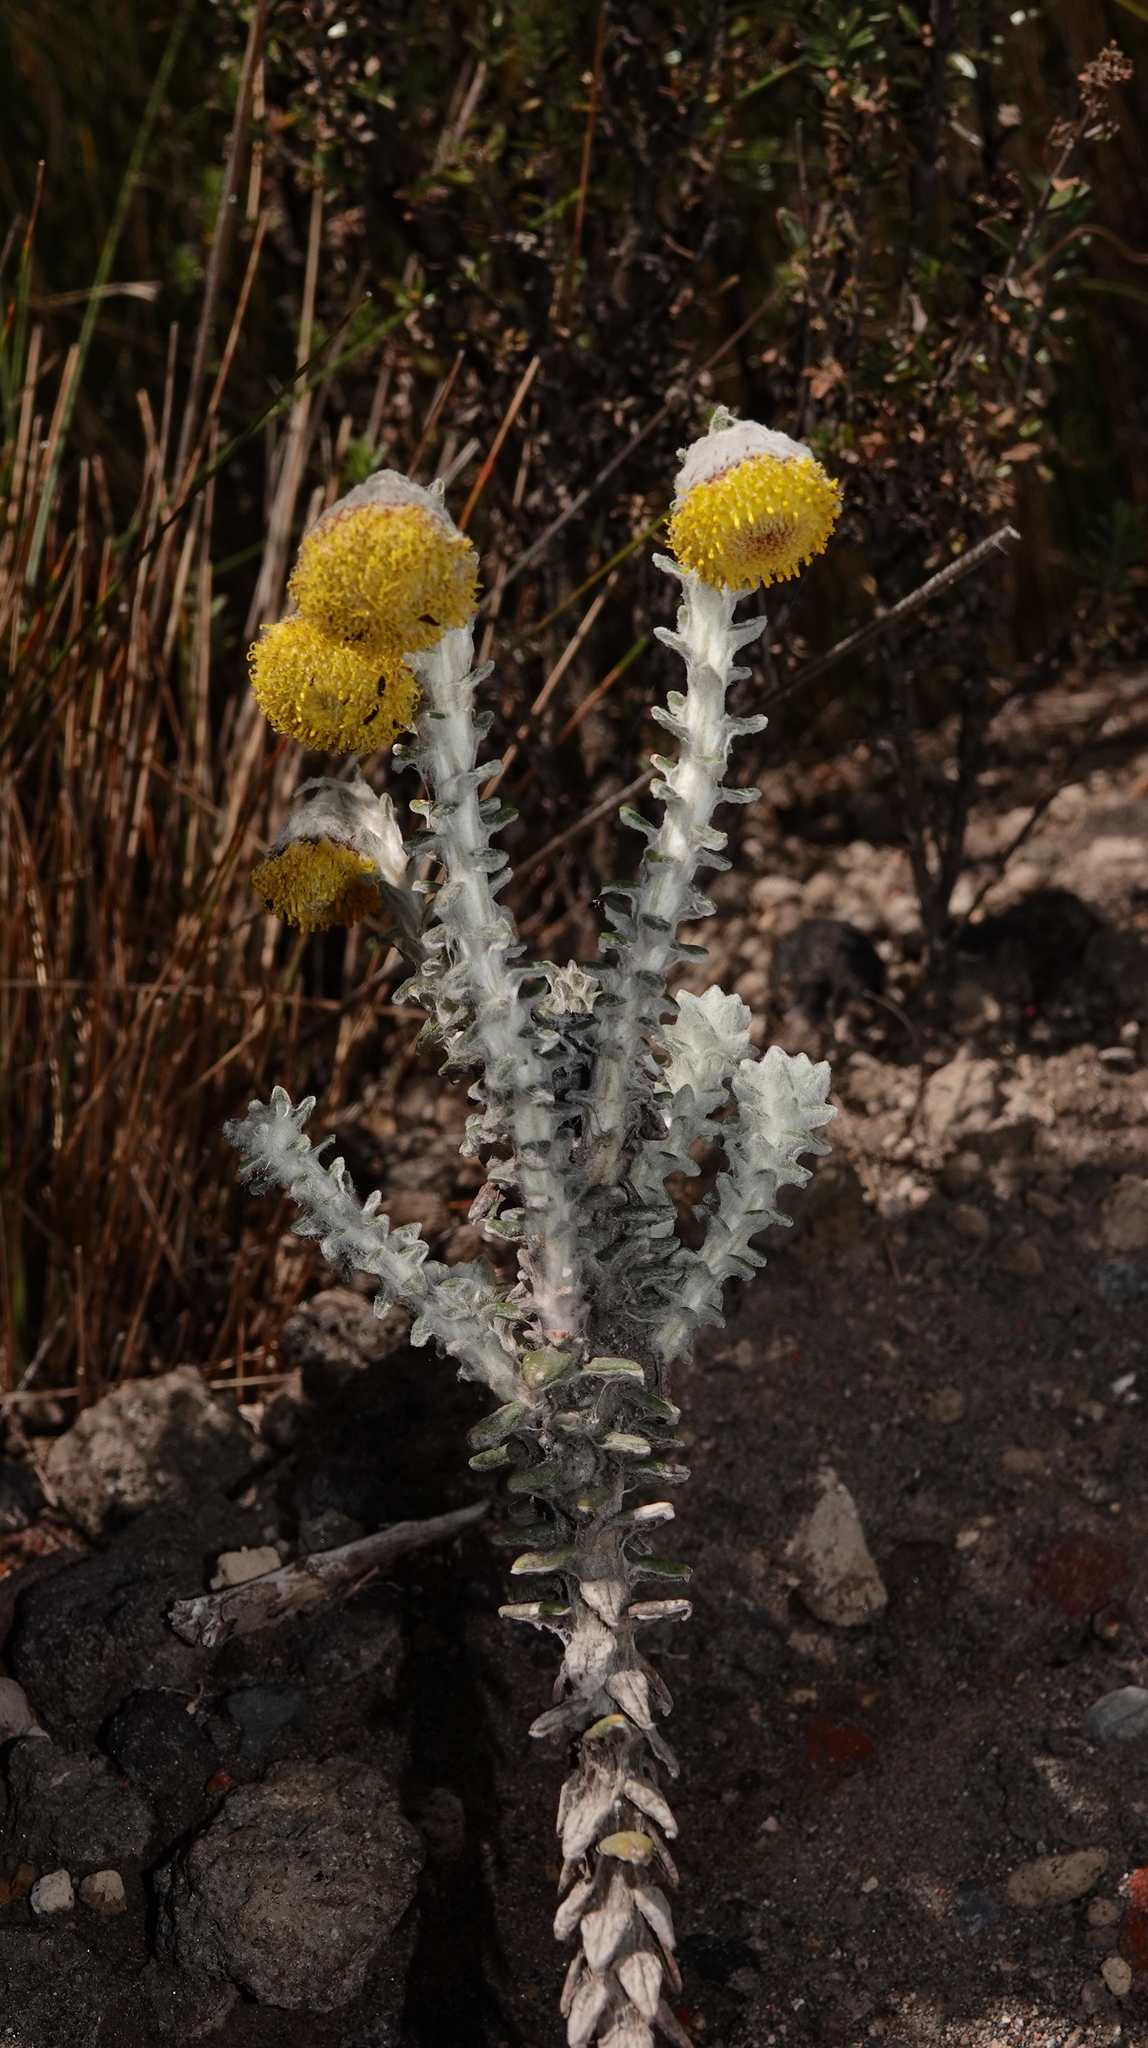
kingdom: Plantae
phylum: Tracheophyta
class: Magnoliopsida
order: Asterales
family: Asteraceae
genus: Lasiocephalus
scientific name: Lasiocephalus ovatus
